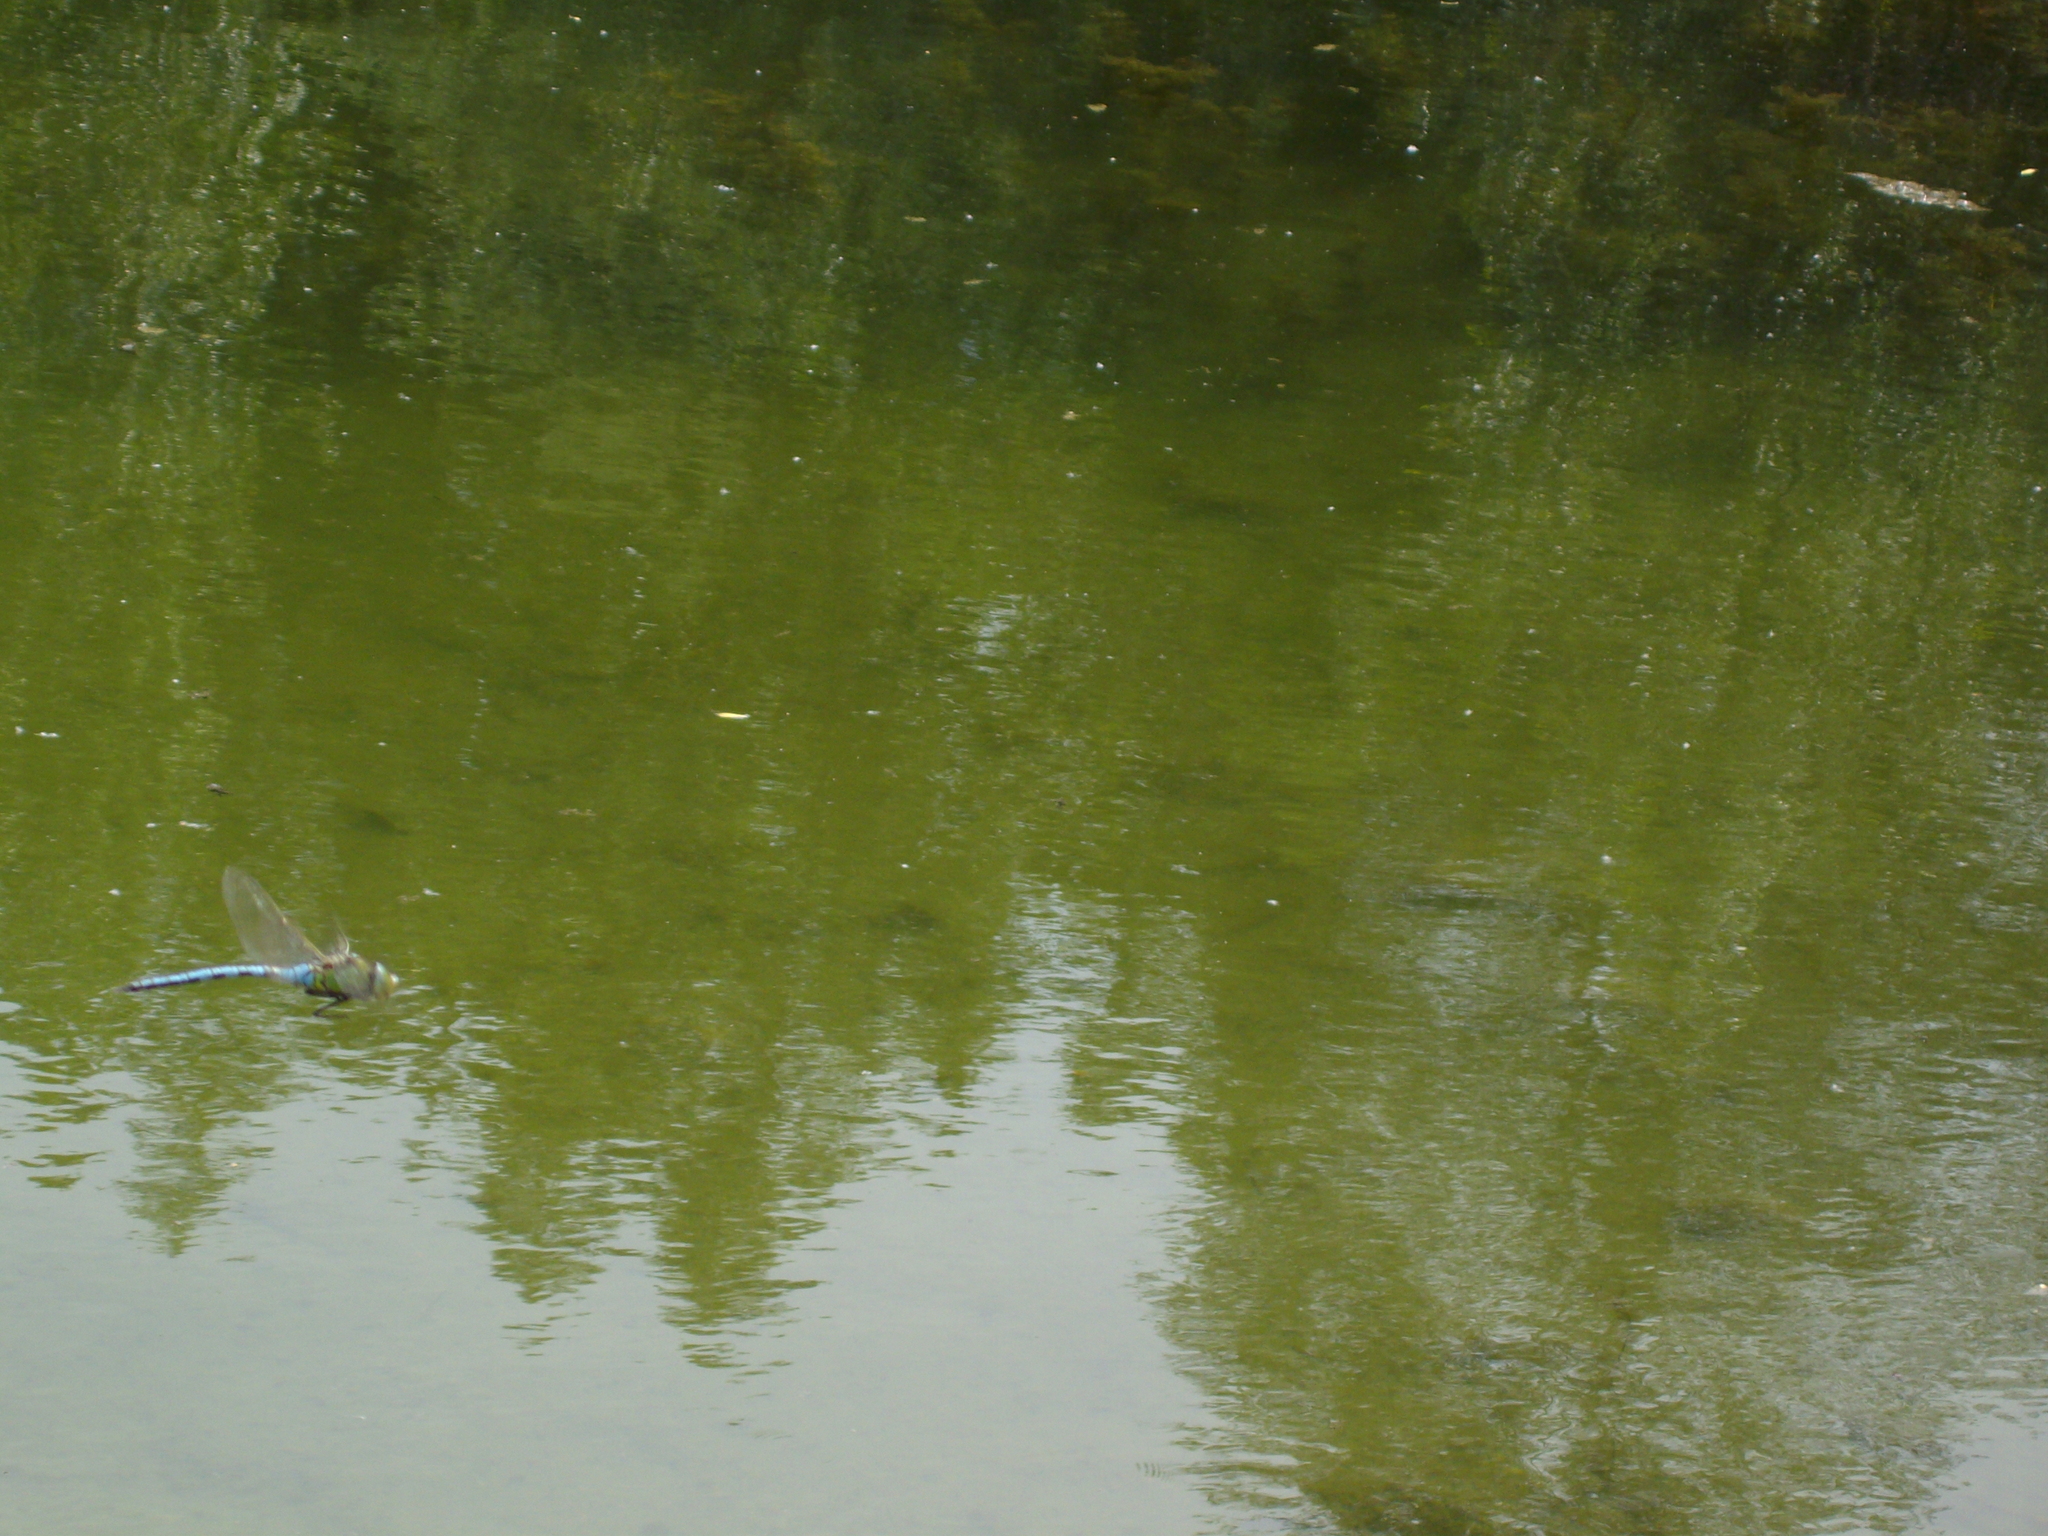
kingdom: Animalia
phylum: Arthropoda
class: Insecta
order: Odonata
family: Aeshnidae
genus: Anax
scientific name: Anax imperator
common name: Emperor dragonfly
